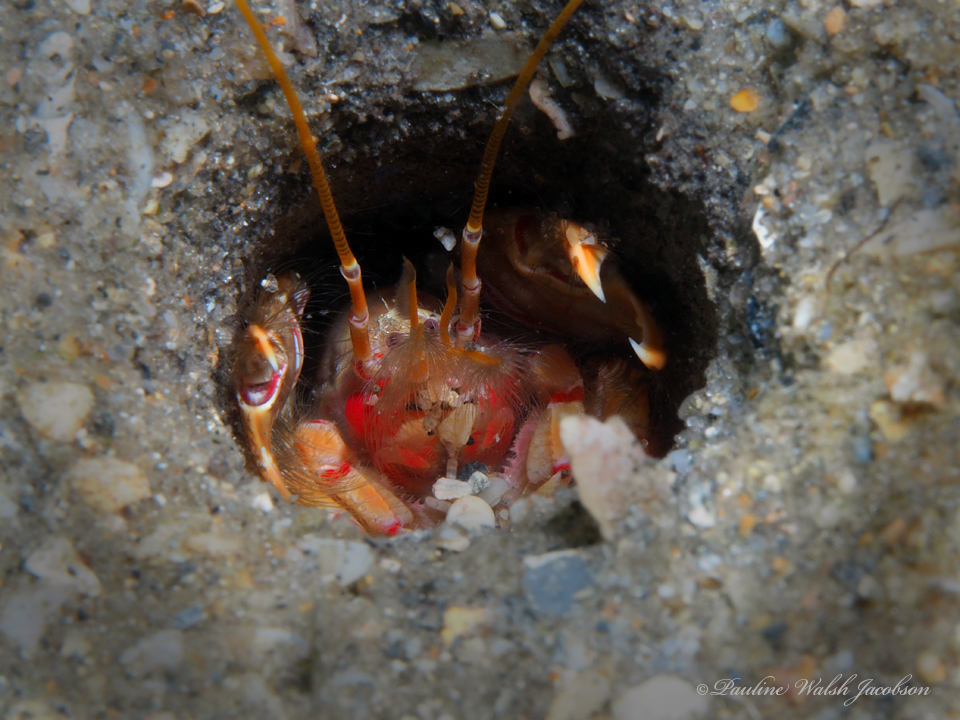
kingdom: Animalia
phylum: Arthropoda
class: Malacostraca
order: Decapoda
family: Callichiridae
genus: Corallianassa
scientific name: Corallianassa longiventris
